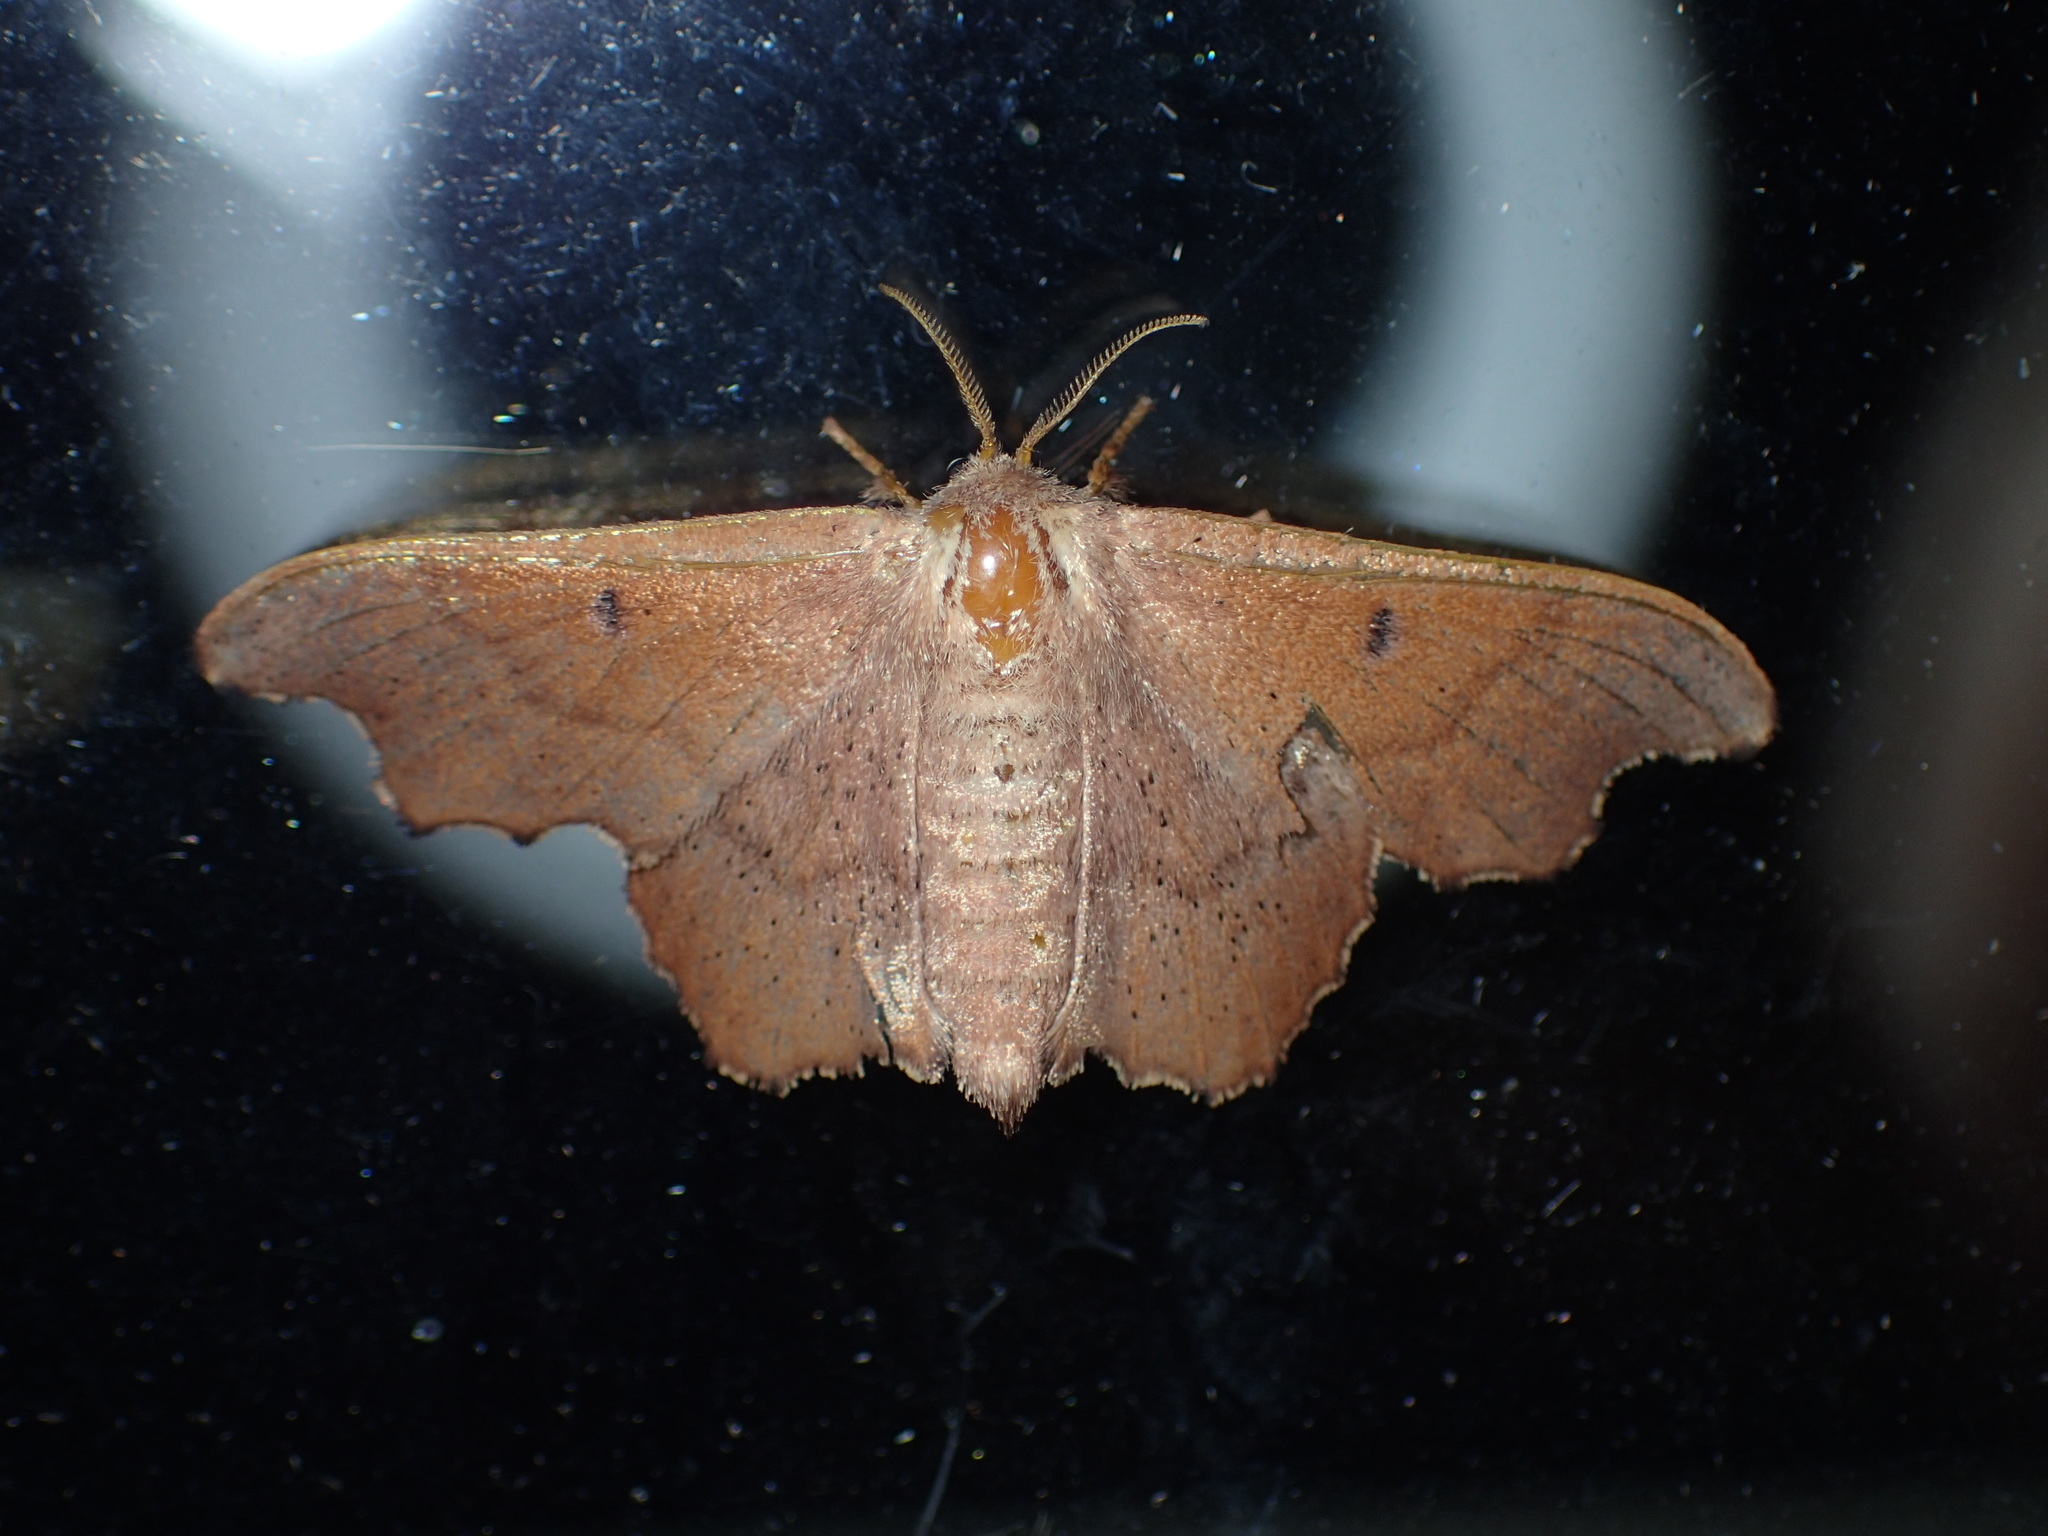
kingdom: Animalia
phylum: Arthropoda
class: Insecta
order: Lepidoptera
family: Mimallonidae
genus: Lacosoma
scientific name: Lacosoma chiridota
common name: Scalloped sack-bearer moth
